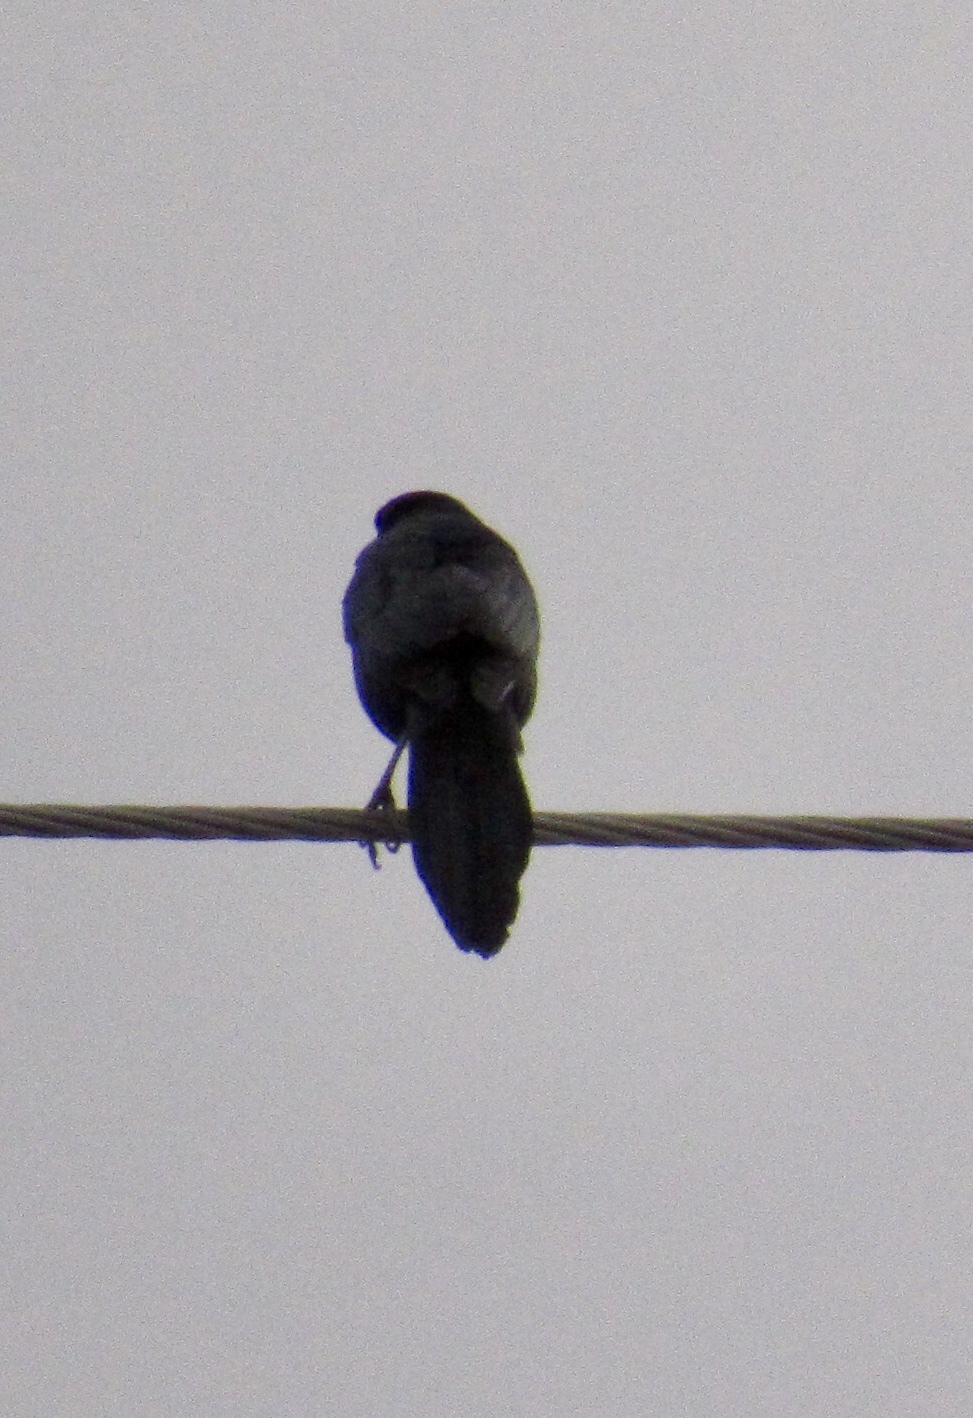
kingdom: Animalia
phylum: Chordata
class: Aves
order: Passeriformes
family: Icteridae
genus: Quiscalus
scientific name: Quiscalus mexicanus
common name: Great-tailed grackle
